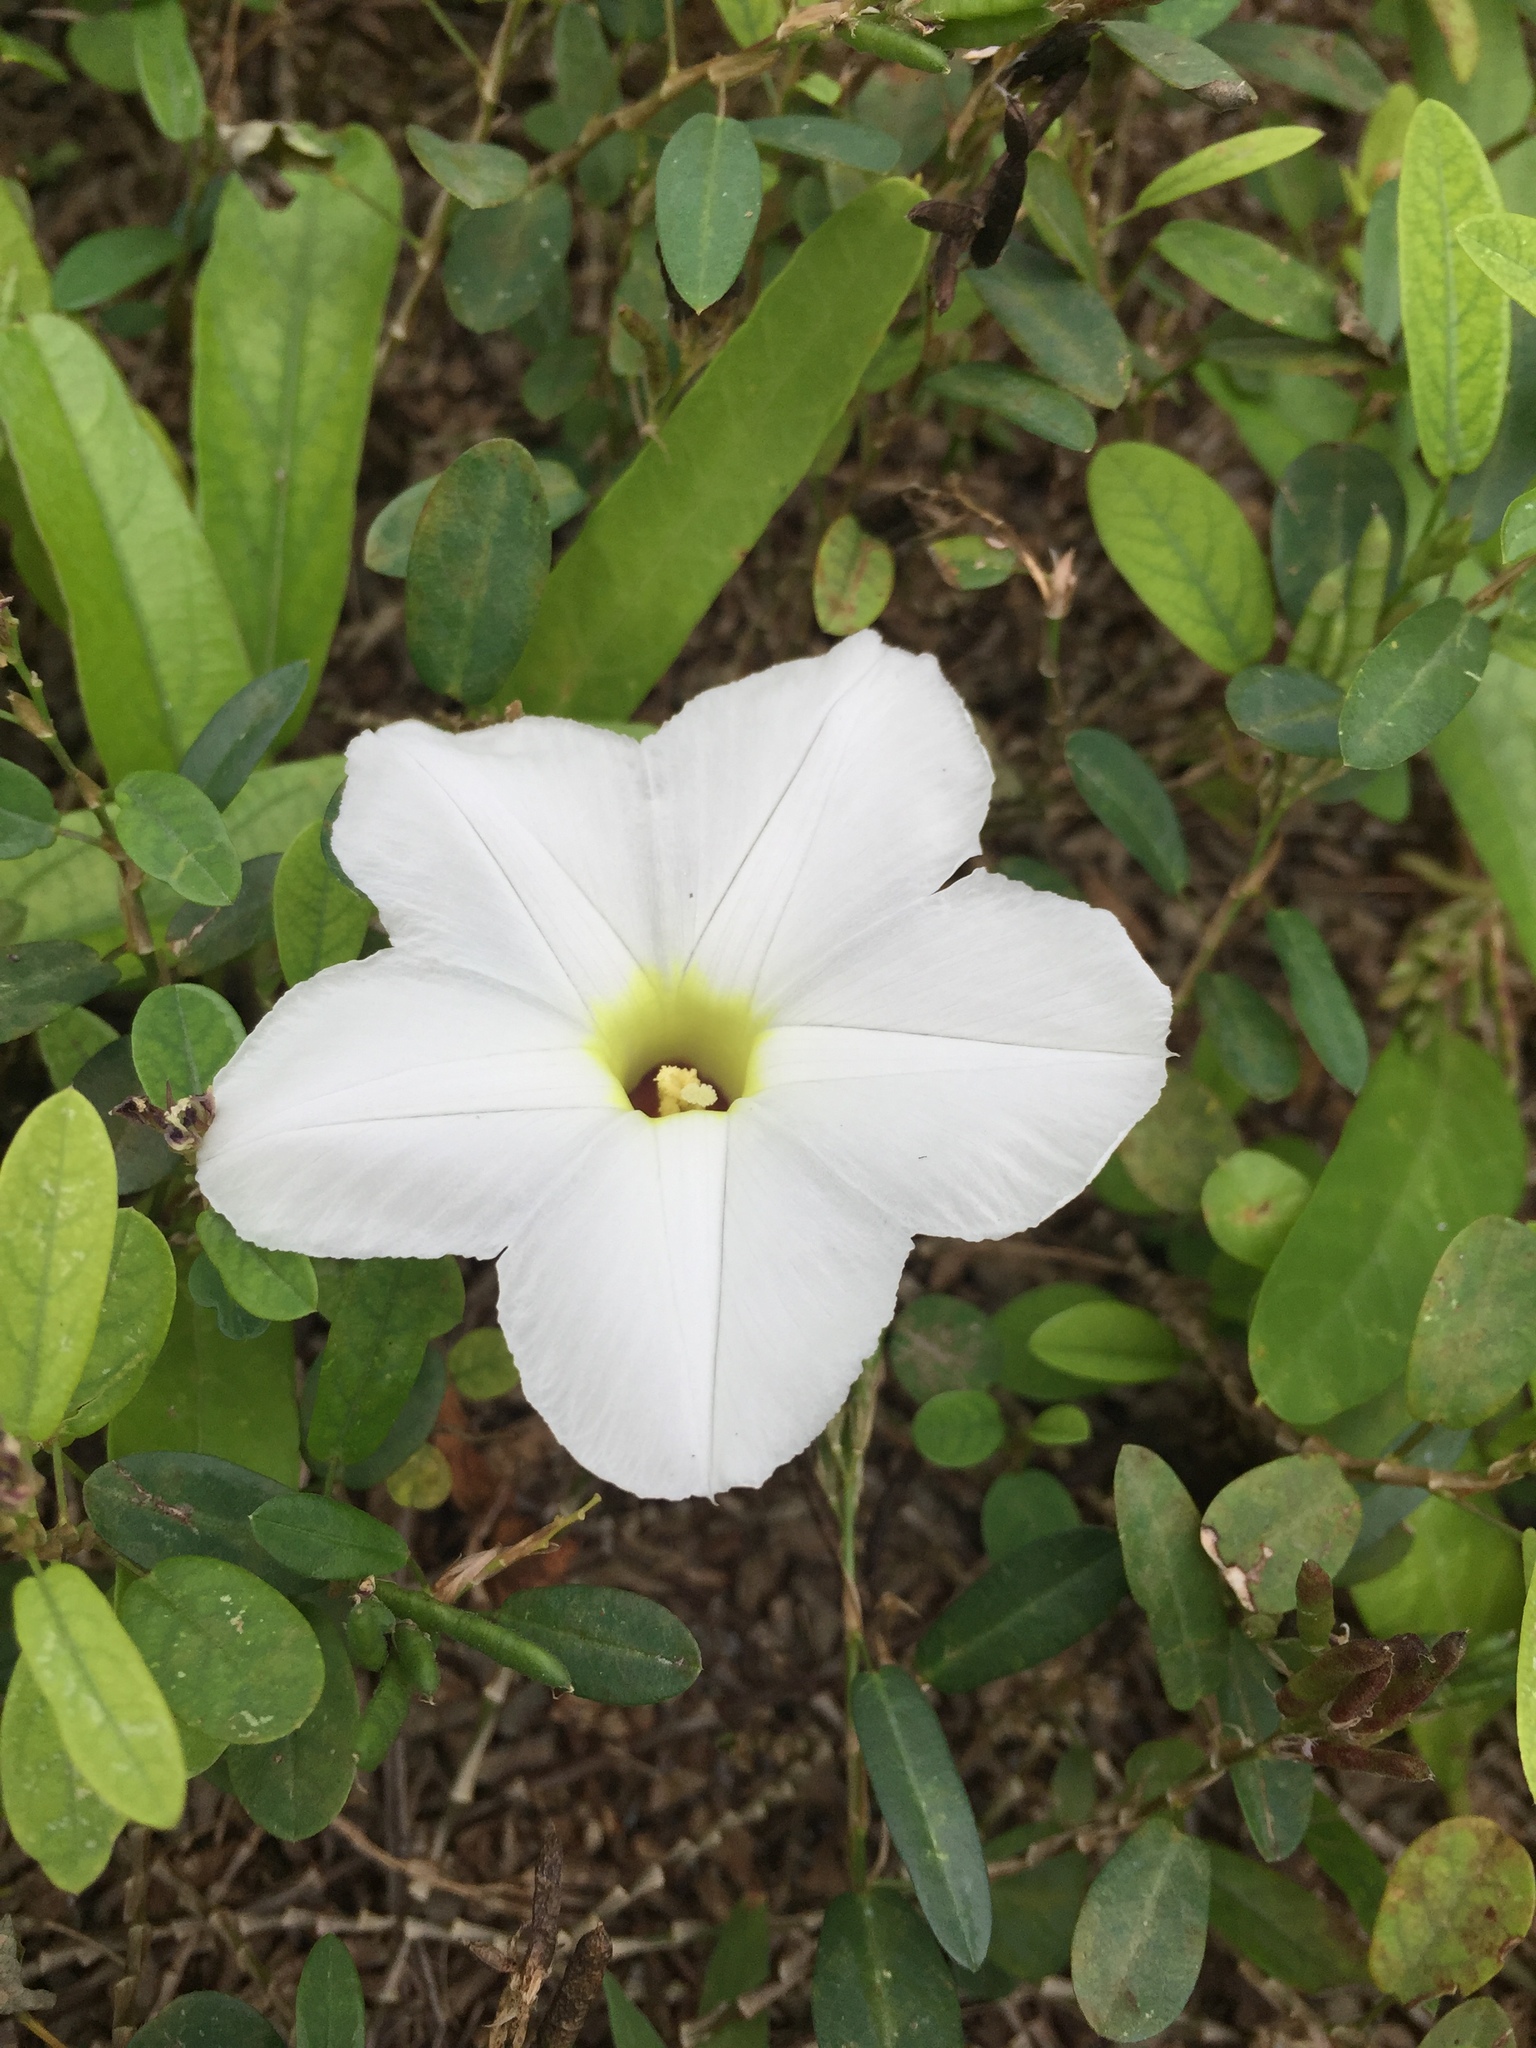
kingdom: Plantae
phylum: Tracheophyta
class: Magnoliopsida
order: Solanales
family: Convolvulaceae
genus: Ipomoea
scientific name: Ipomoea imperati
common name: Fiddle-leaf morning-glory
